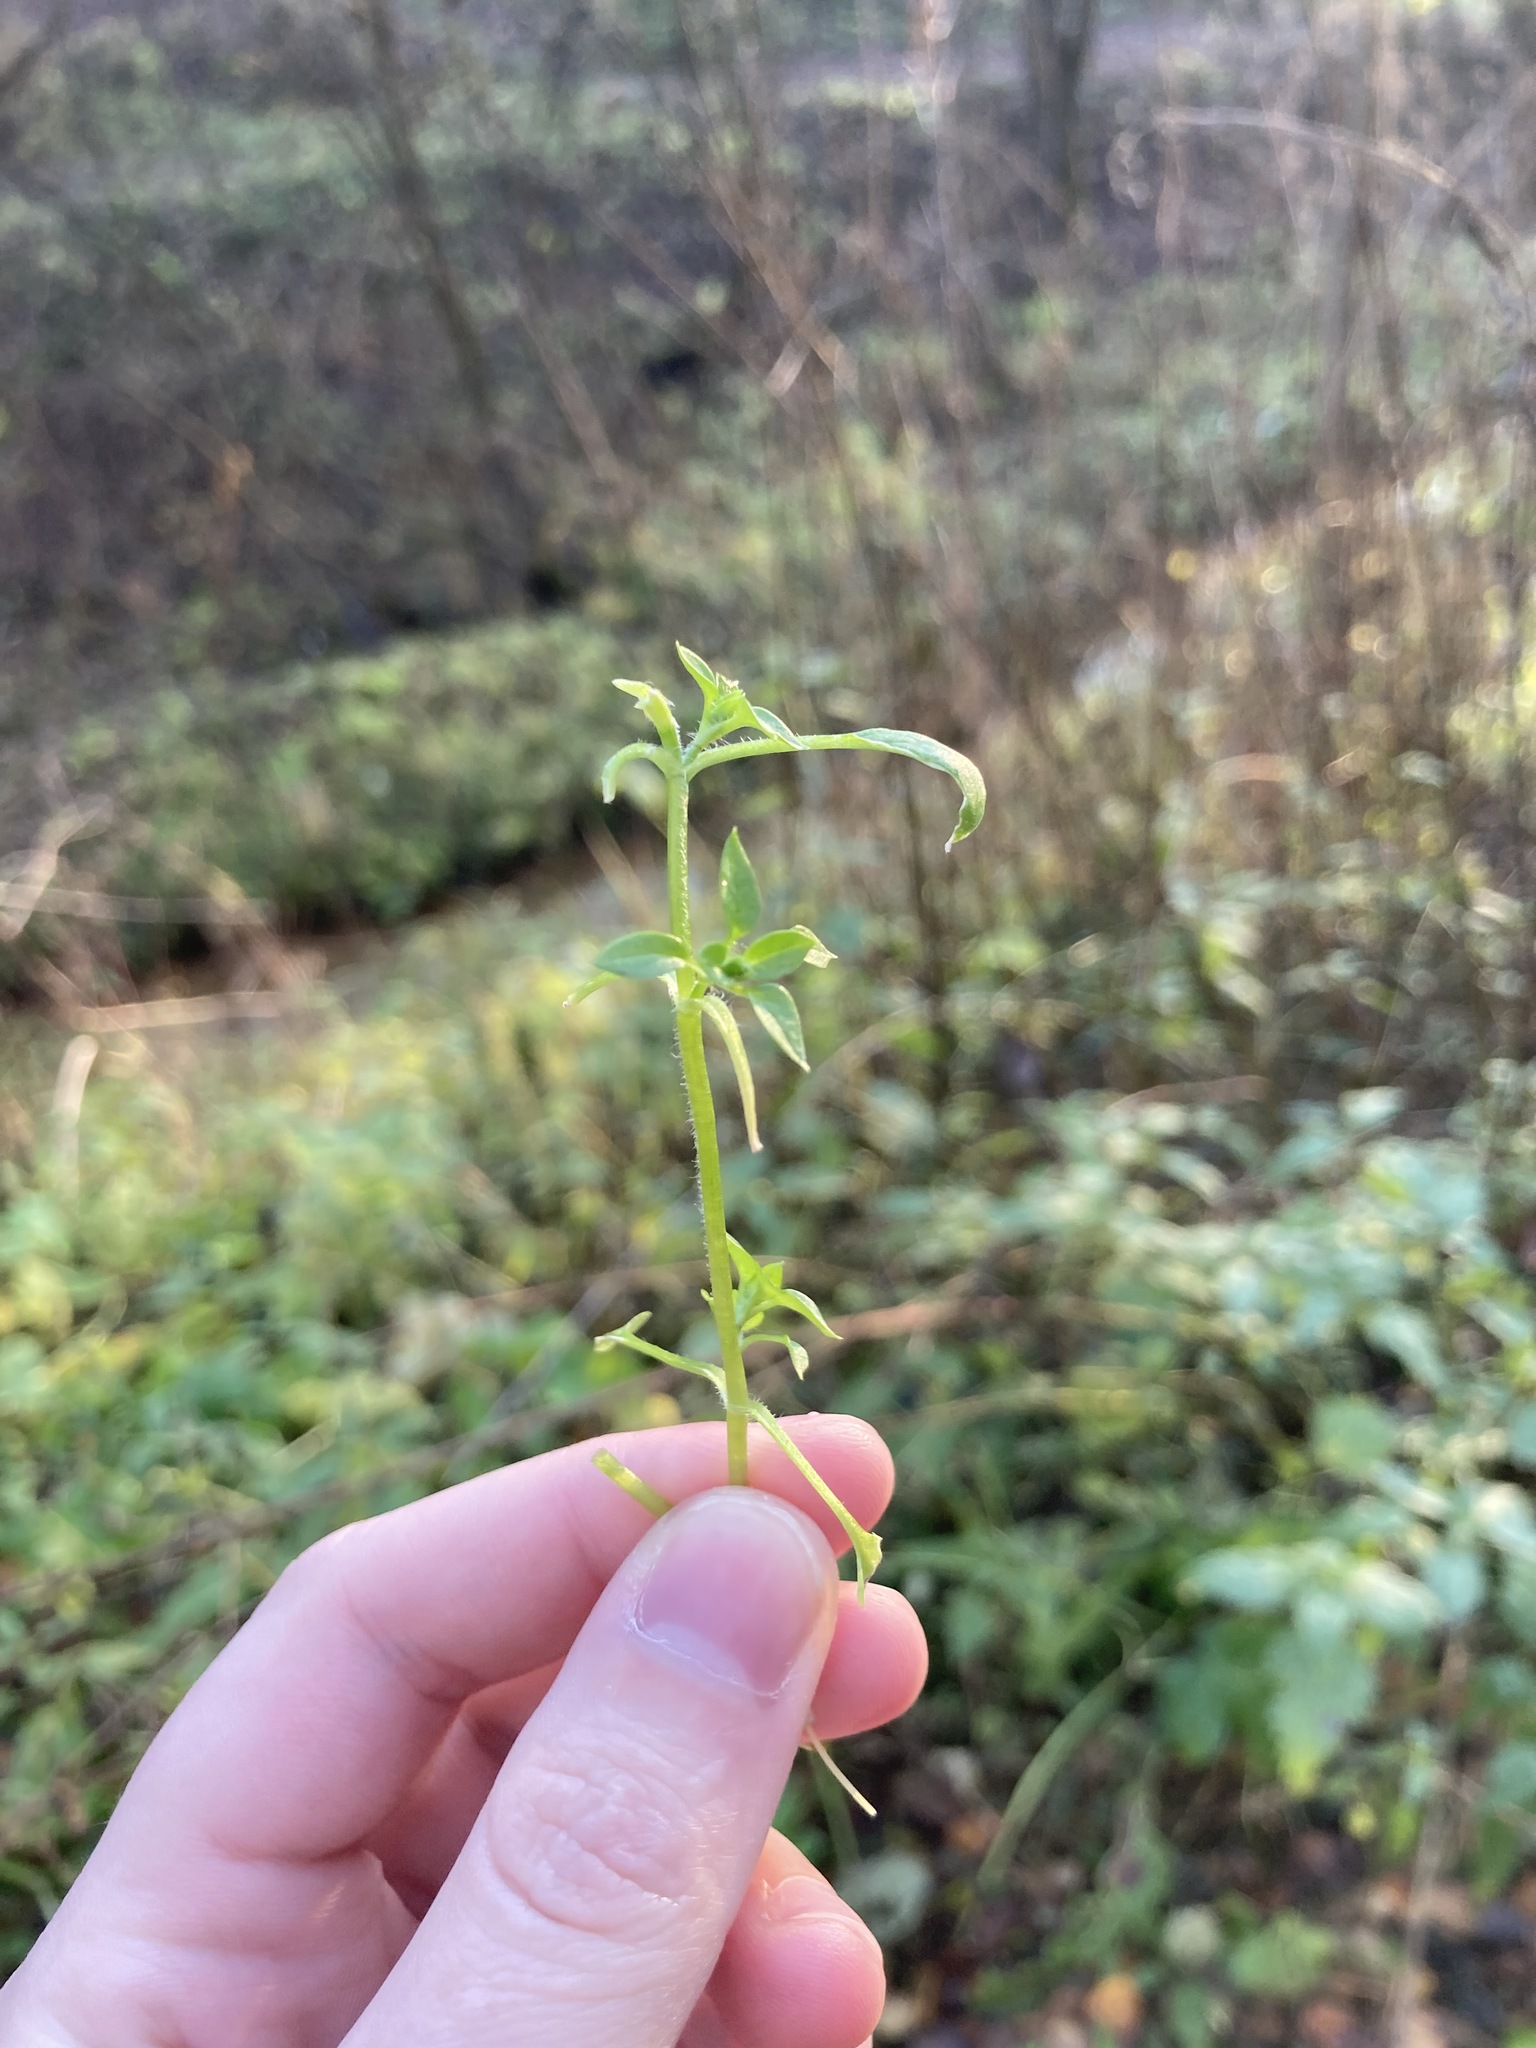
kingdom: Plantae
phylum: Tracheophyta
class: Magnoliopsida
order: Caryophyllales
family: Caryophyllaceae
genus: Stellaria
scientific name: Stellaria media
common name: Common chickweed
